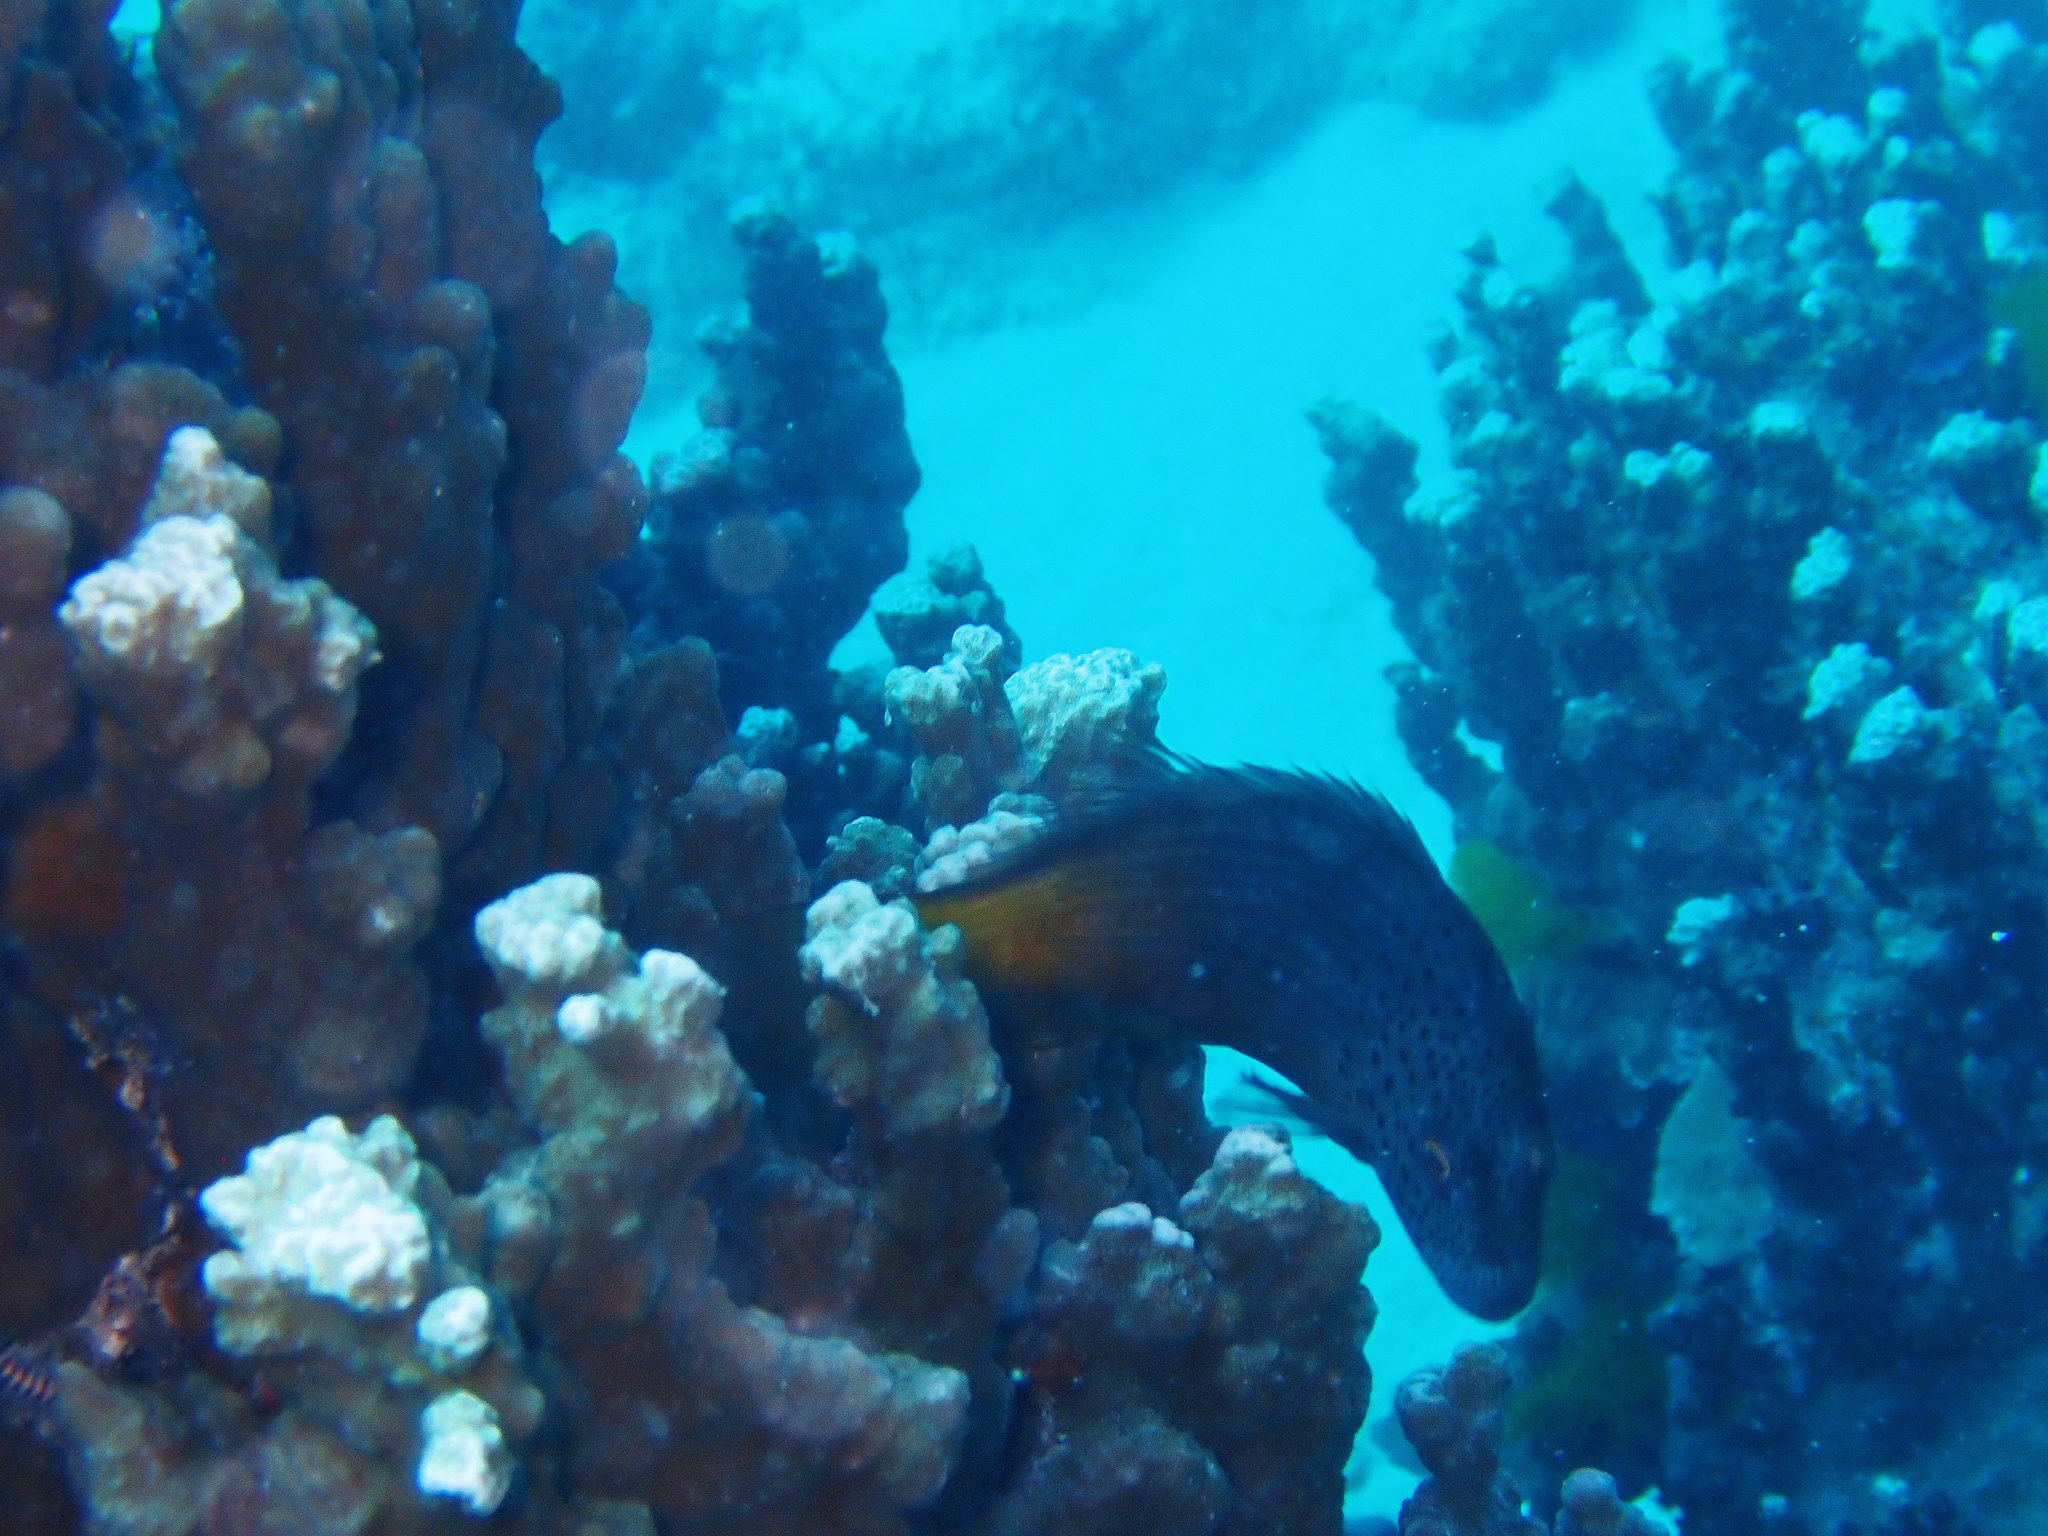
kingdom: Animalia
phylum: Chordata
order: Perciformes
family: Cirrhitidae
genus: Paracirrhites
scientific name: Paracirrhites forsteri
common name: Freckled hawkfish
